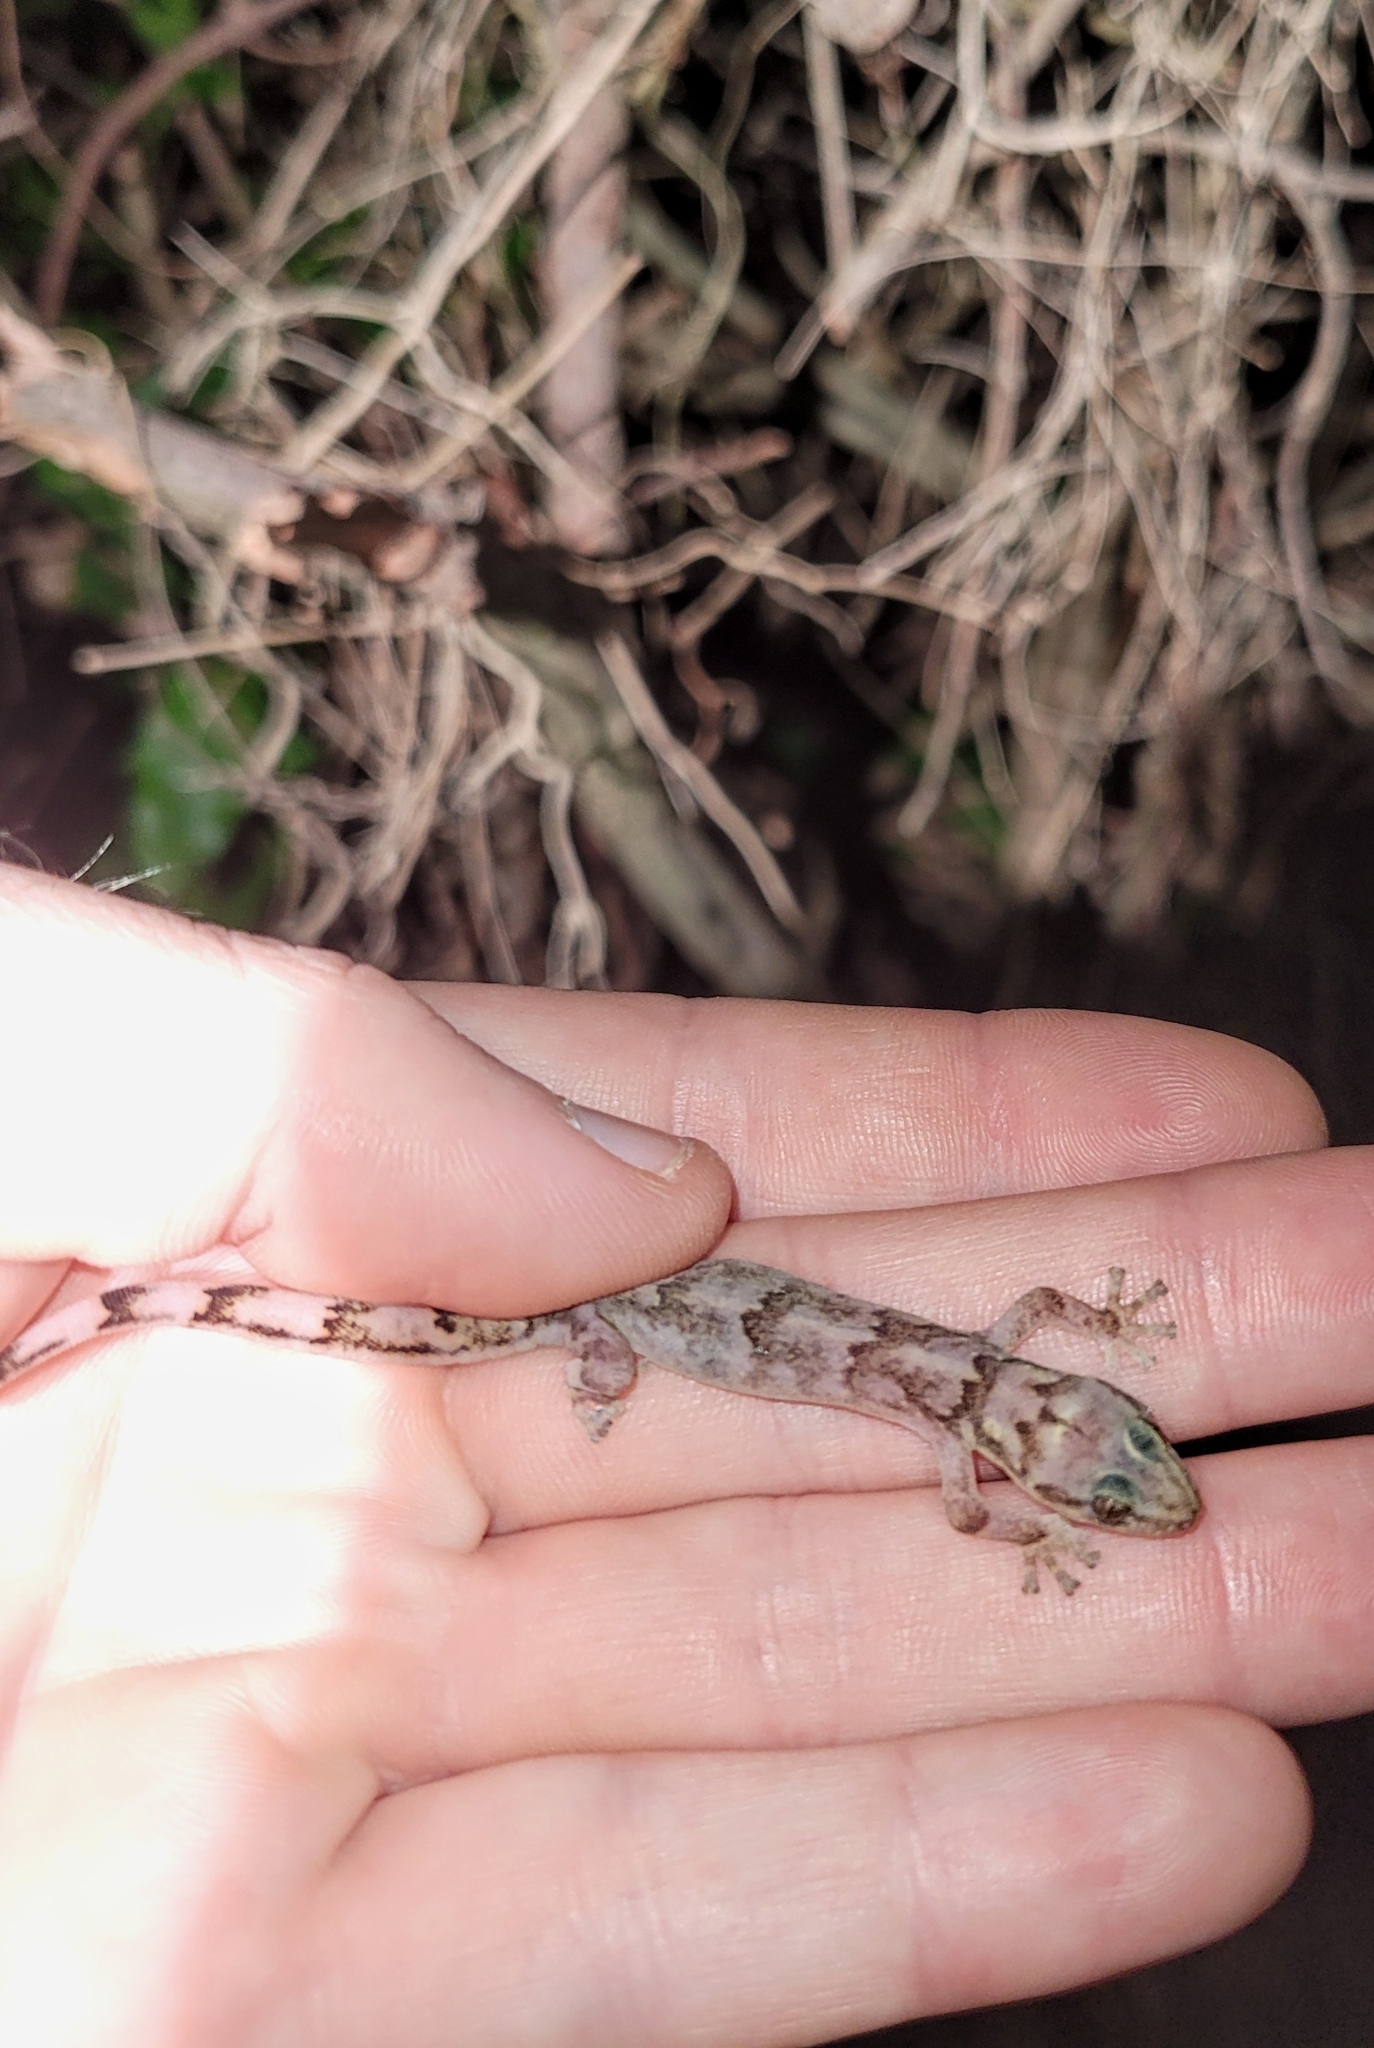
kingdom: Animalia
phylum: Chordata
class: Squamata
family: Gekkonidae
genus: Afroedura
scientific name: Afroedura pondolia
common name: Pondo flat gecko
